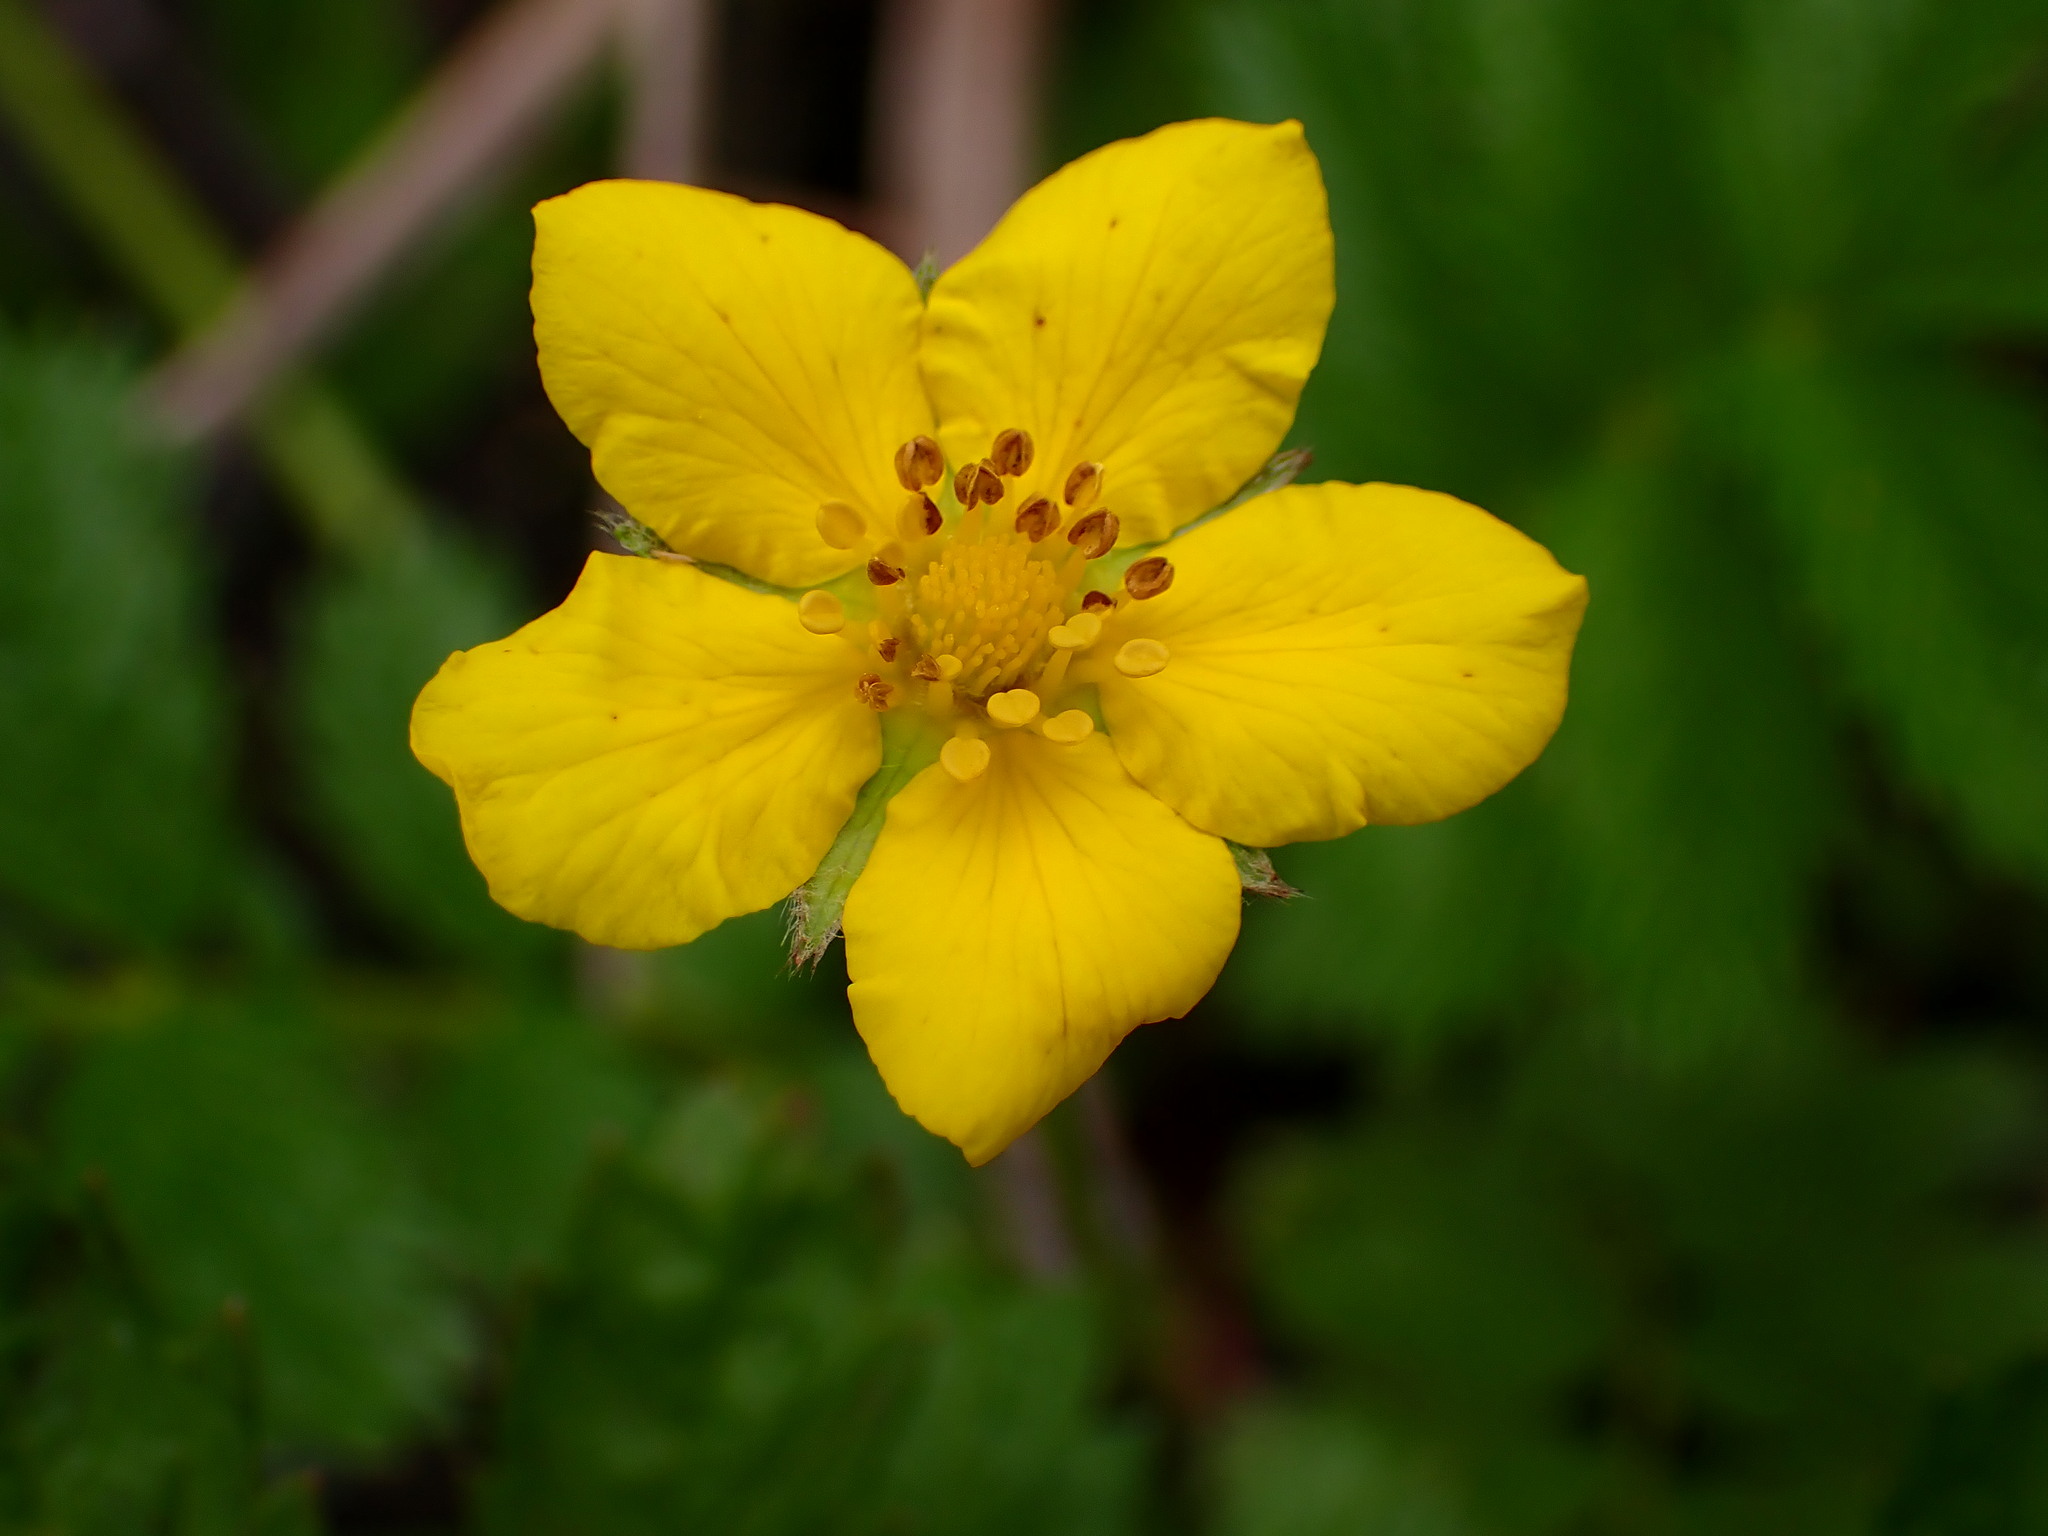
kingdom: Plantae
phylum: Tracheophyta
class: Magnoliopsida
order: Rosales
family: Rosaceae
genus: Argentina
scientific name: Argentina anserina
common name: Common silverweed
